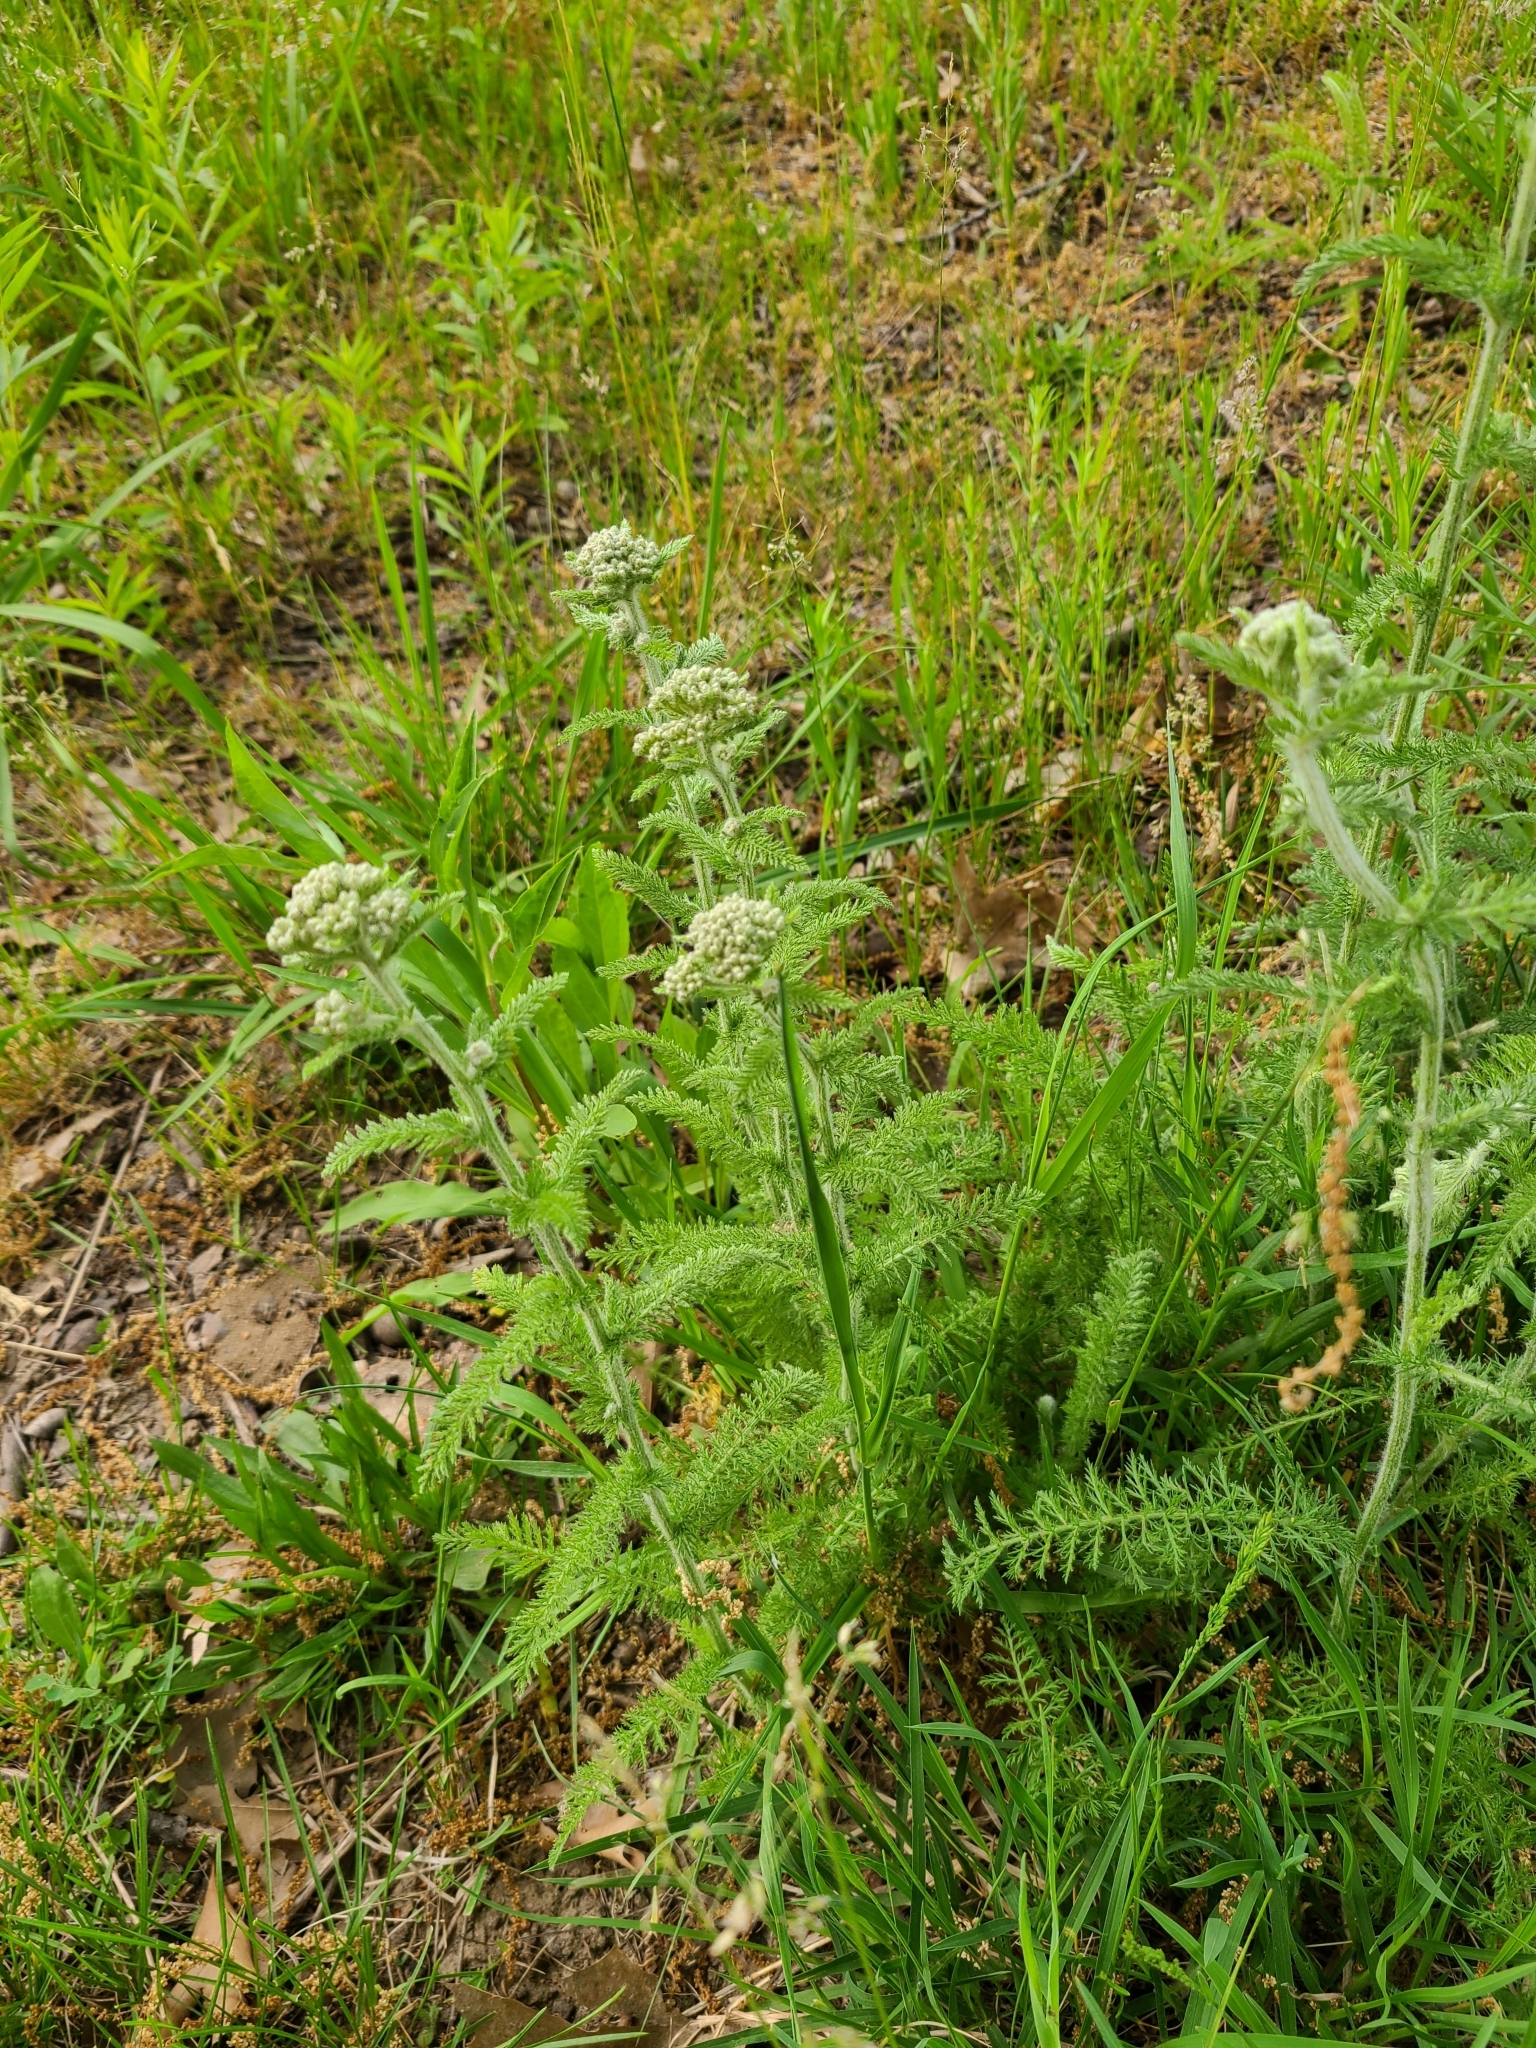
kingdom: Plantae
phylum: Tracheophyta
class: Magnoliopsida
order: Asterales
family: Asteraceae
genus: Achillea
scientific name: Achillea millefolium
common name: Yarrow
